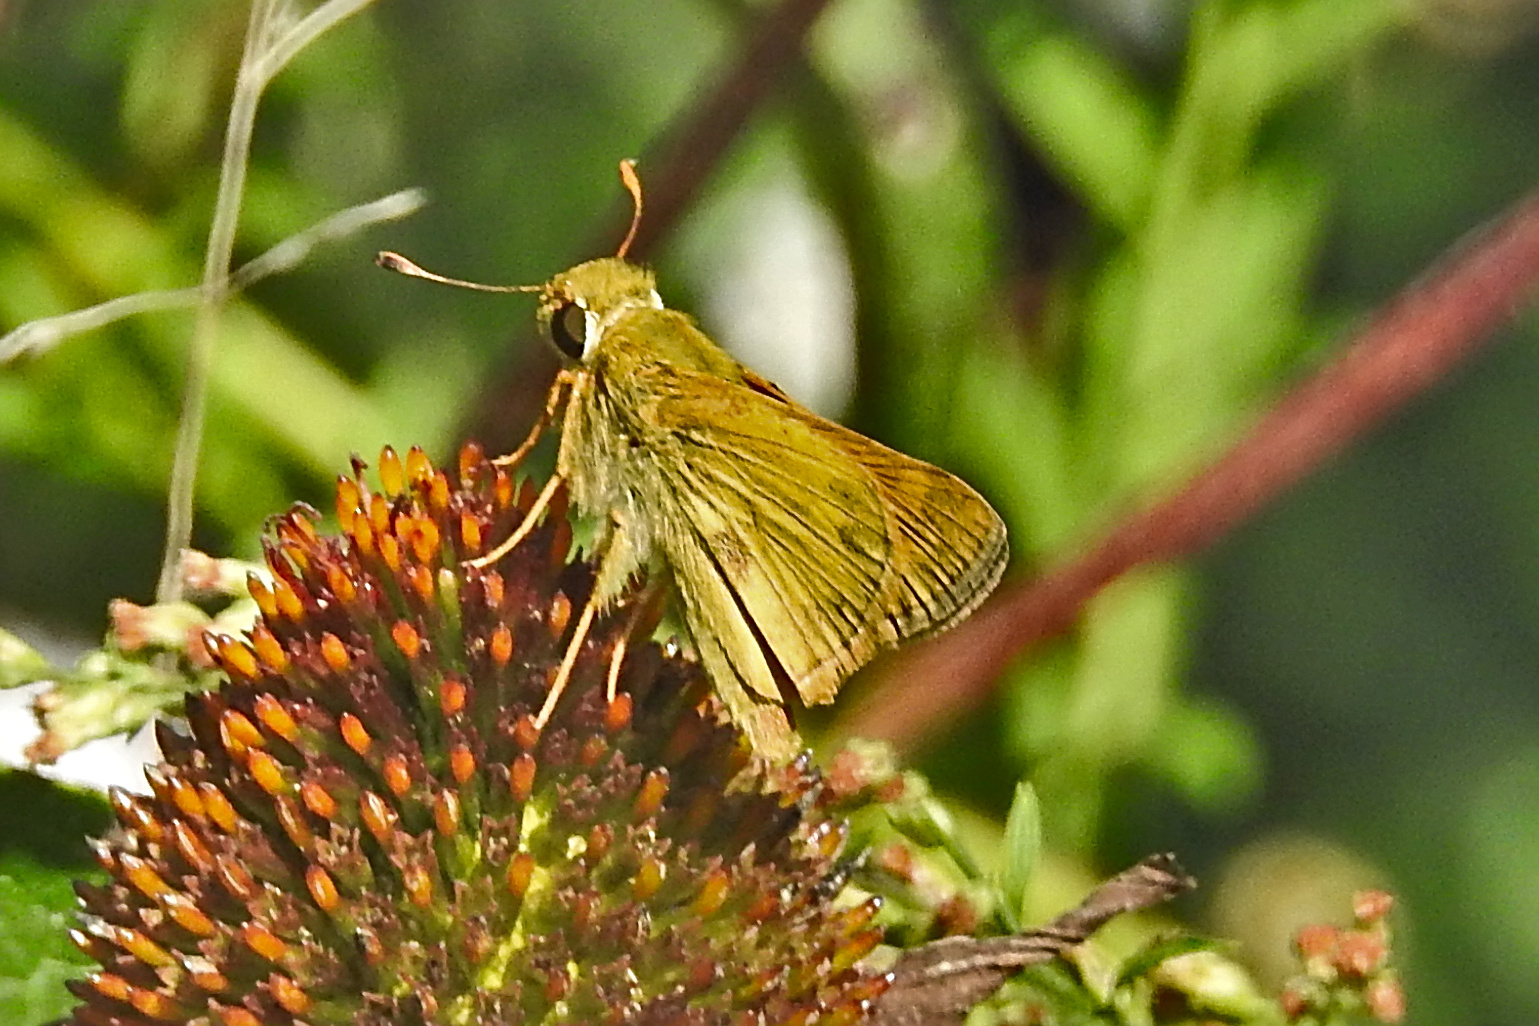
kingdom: Animalia
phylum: Arthropoda
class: Insecta
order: Lepidoptera
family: Hesperiidae
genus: Atalopedes
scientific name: Atalopedes
